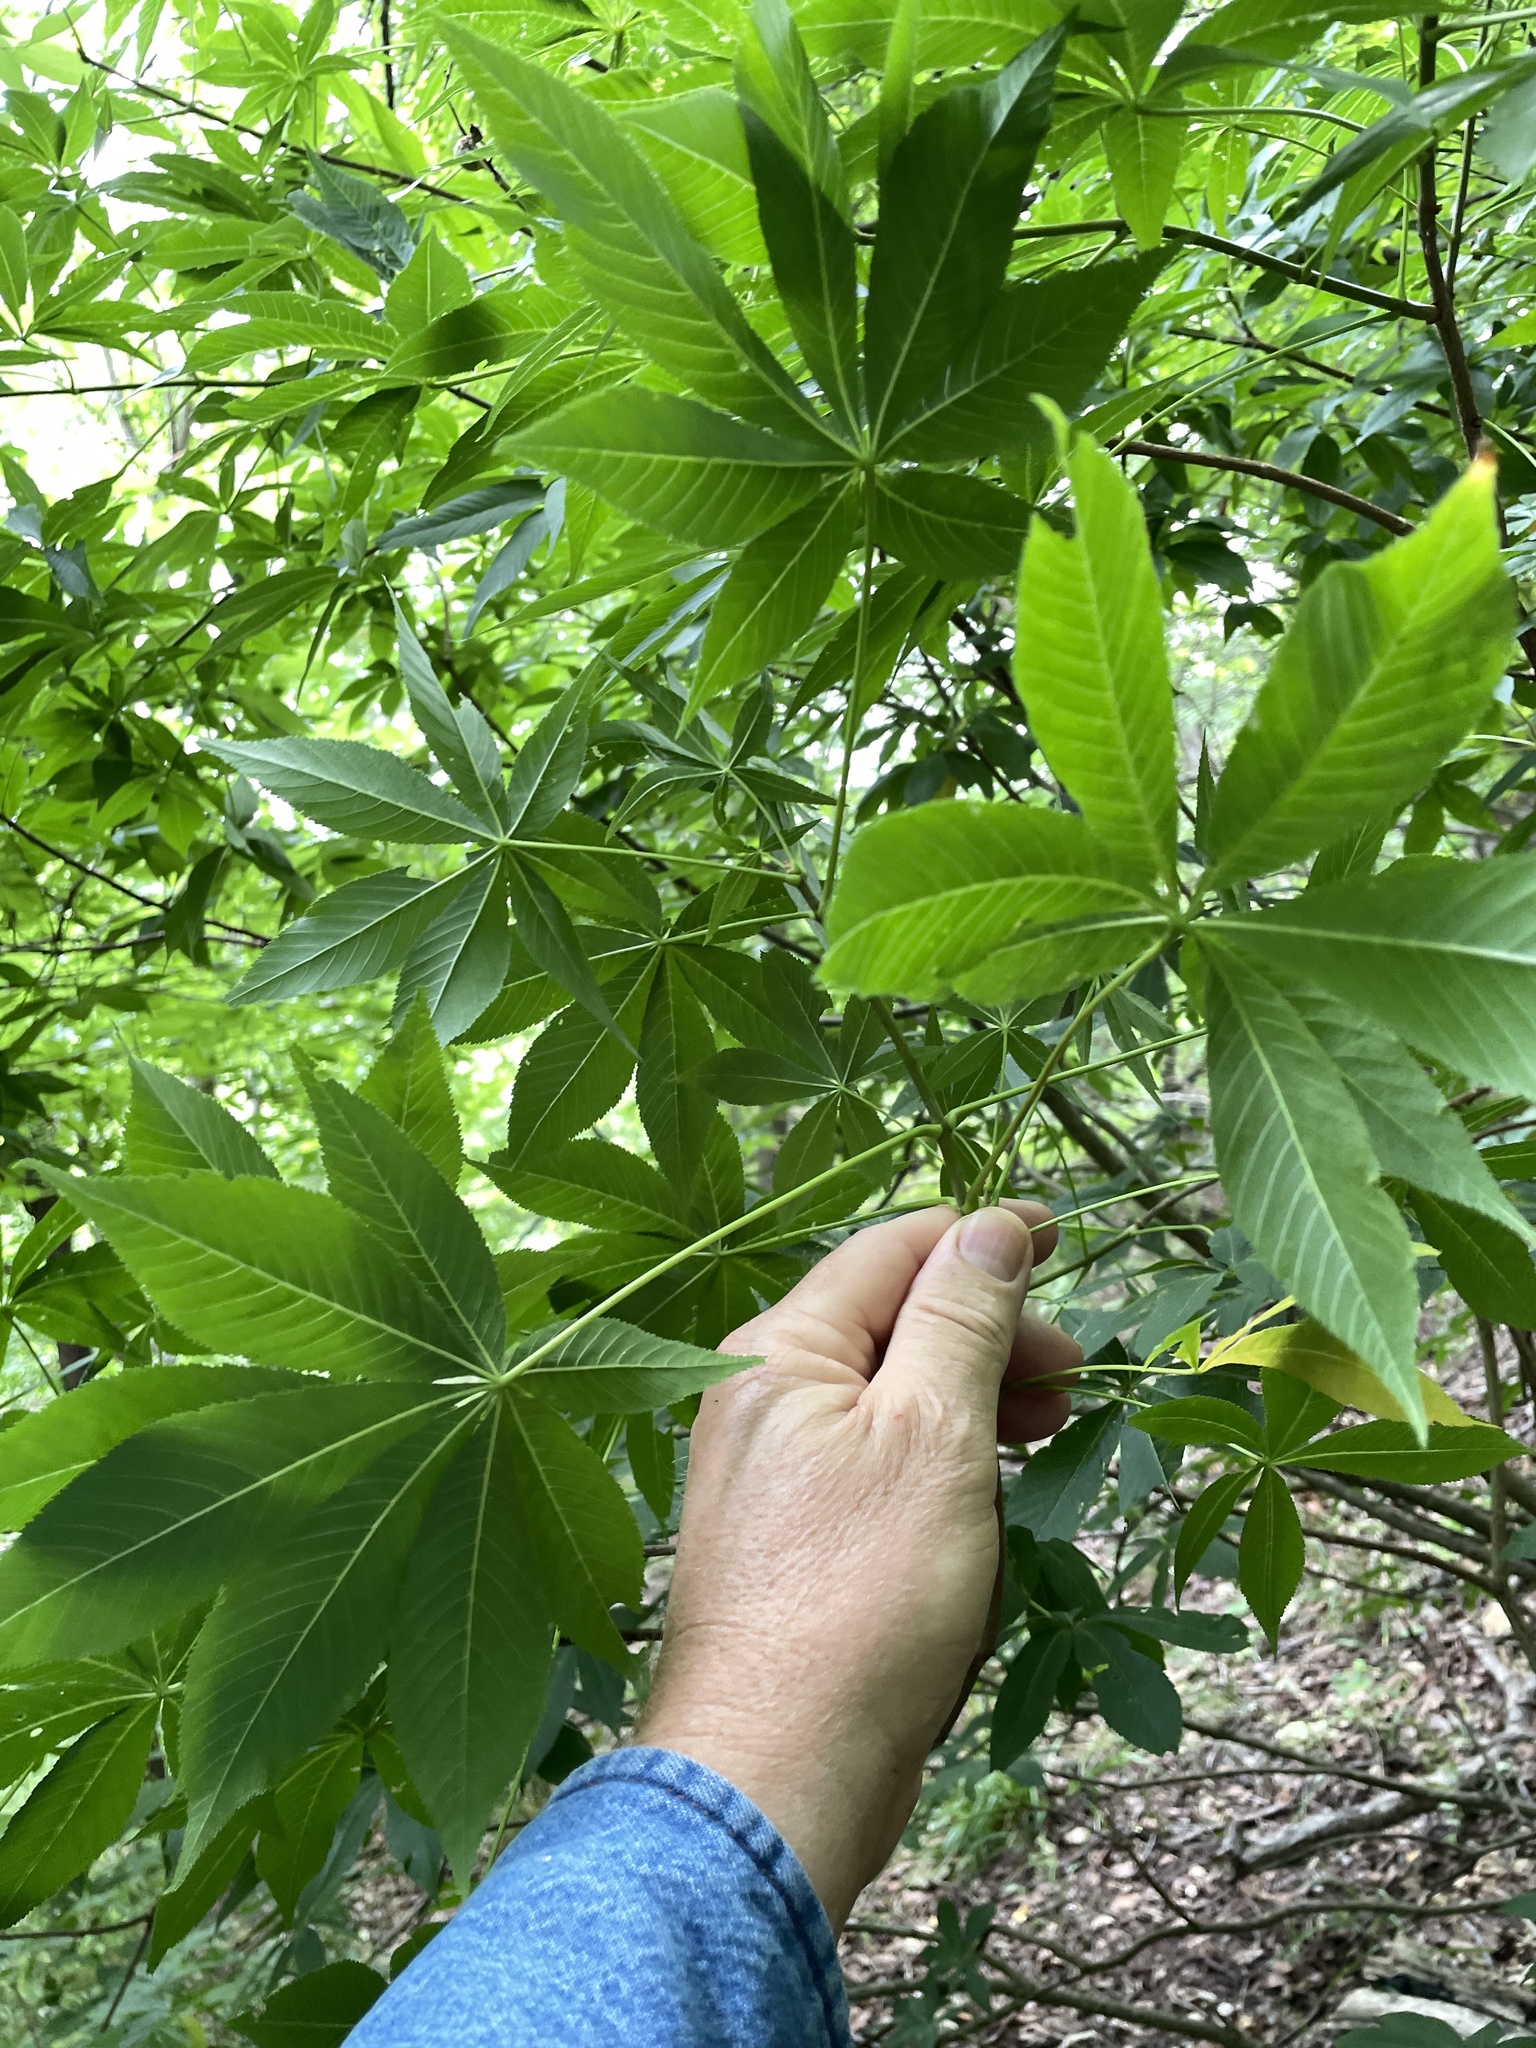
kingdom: Plantae
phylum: Tracheophyta
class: Magnoliopsida
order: Sapindales
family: Sapindaceae
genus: Aesculus
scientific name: Aesculus glabra
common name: Ohio buckeye
